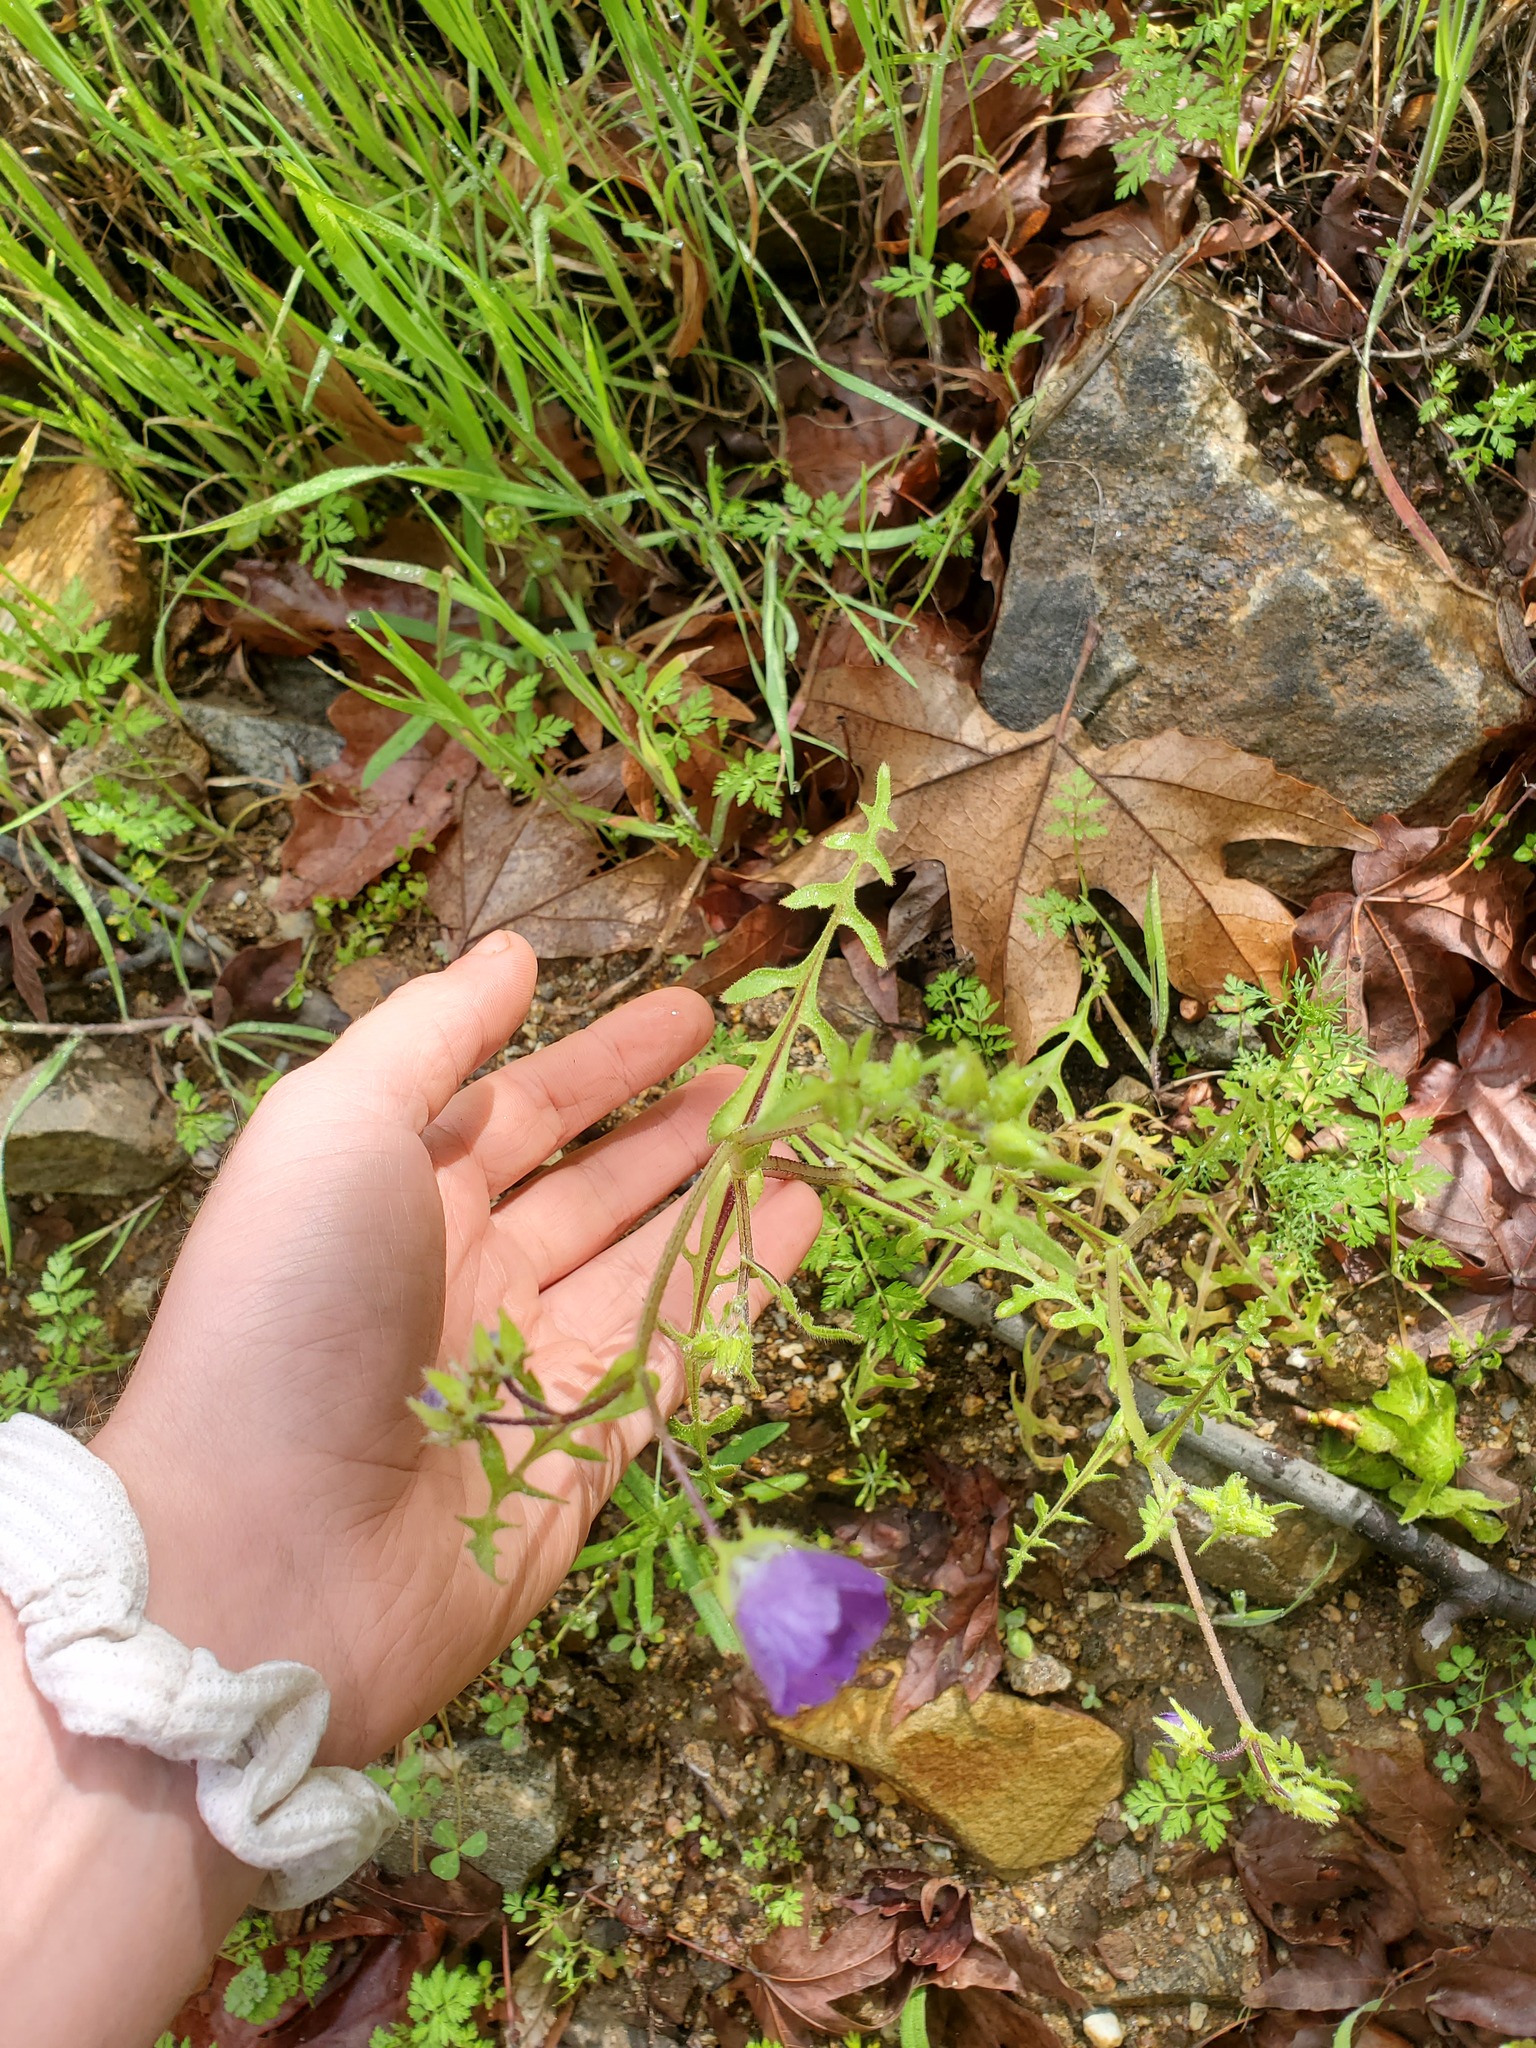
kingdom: Plantae
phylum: Tracheophyta
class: Magnoliopsida
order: Boraginales
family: Hydrophyllaceae
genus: Pholistoma
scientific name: Pholistoma auritum
